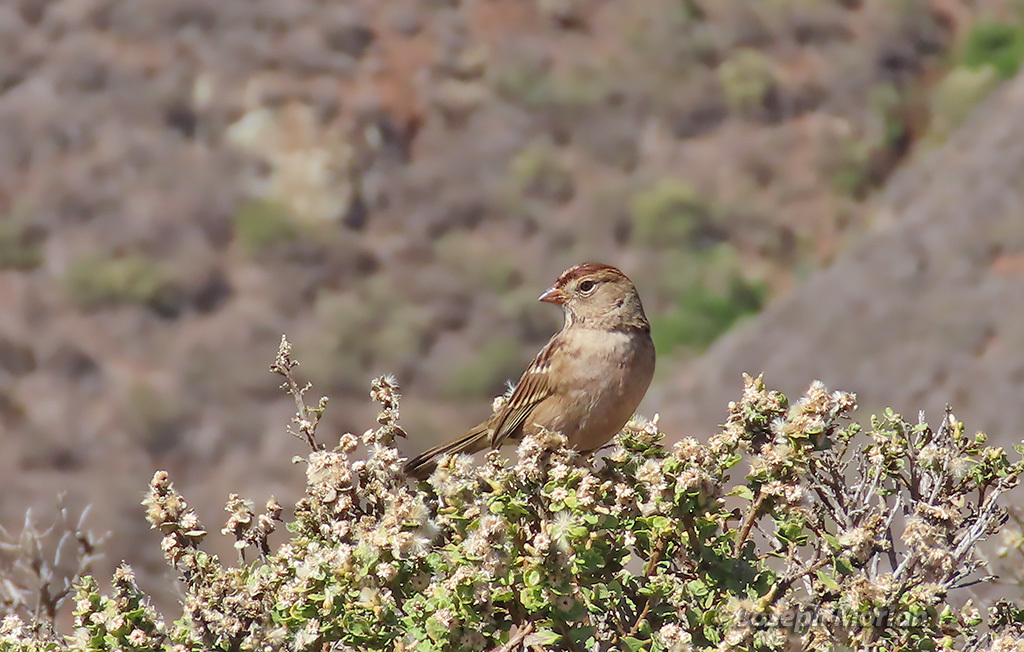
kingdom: Animalia
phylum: Chordata
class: Aves
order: Passeriformes
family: Passerellidae
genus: Zonotrichia
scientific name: Zonotrichia leucophrys
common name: White-crowned sparrow
